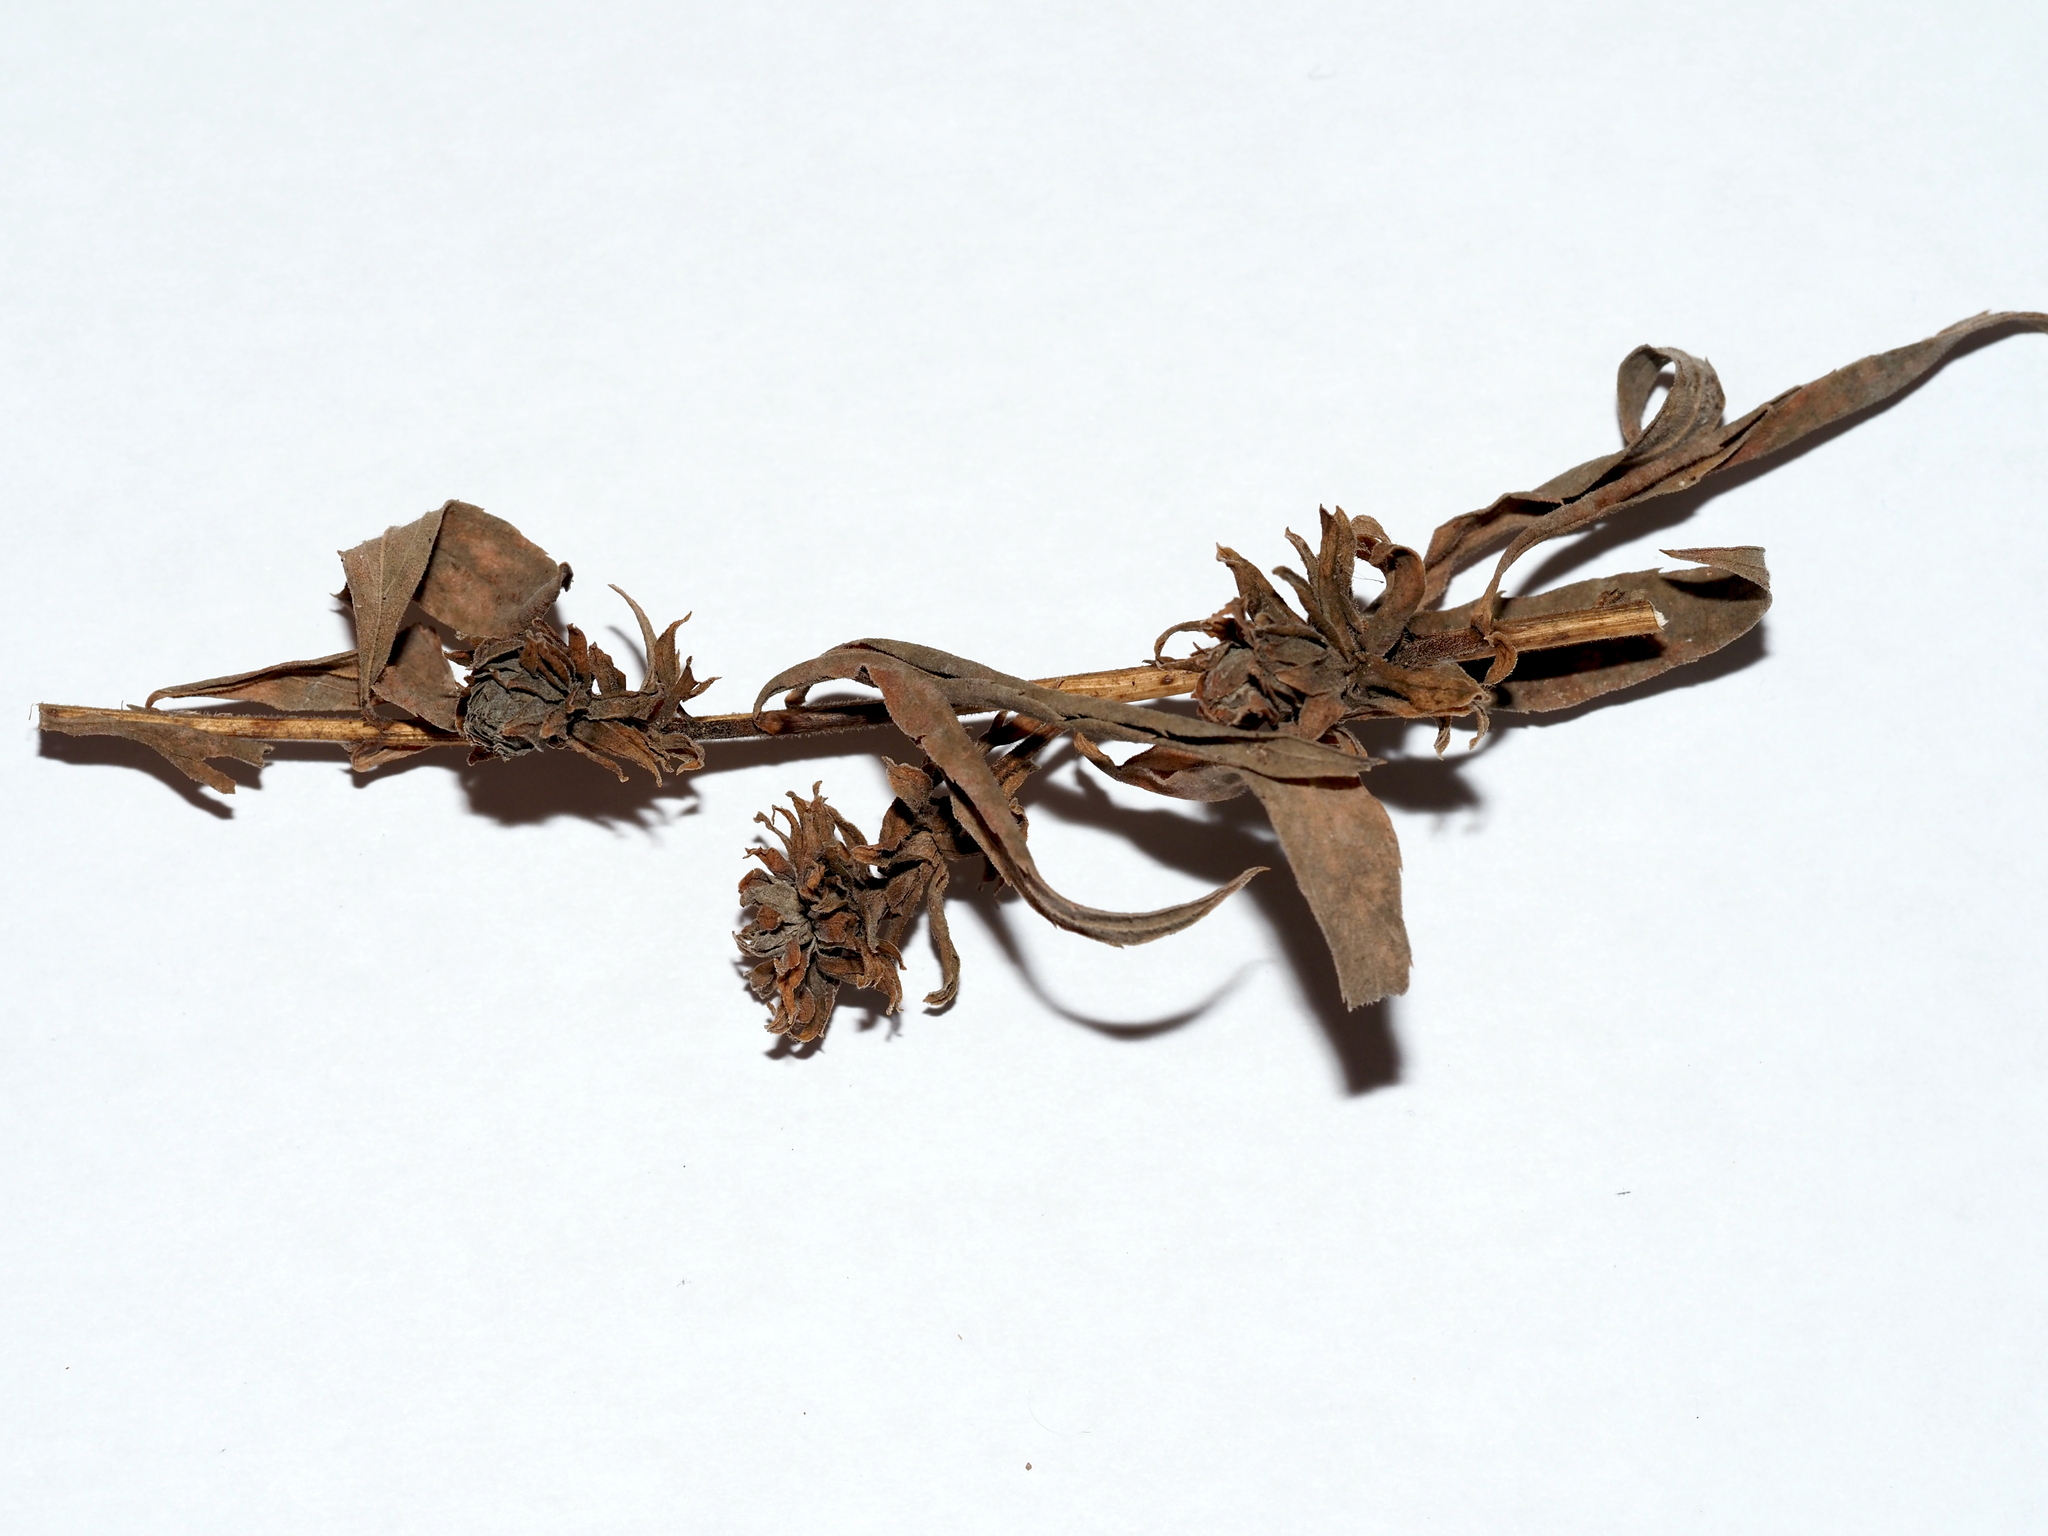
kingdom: Animalia
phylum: Arthropoda
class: Insecta
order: Diptera
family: Tephritidae
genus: Procecidochares
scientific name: Procecidochares atra
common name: Goldenrod brussels sprout gall fly
